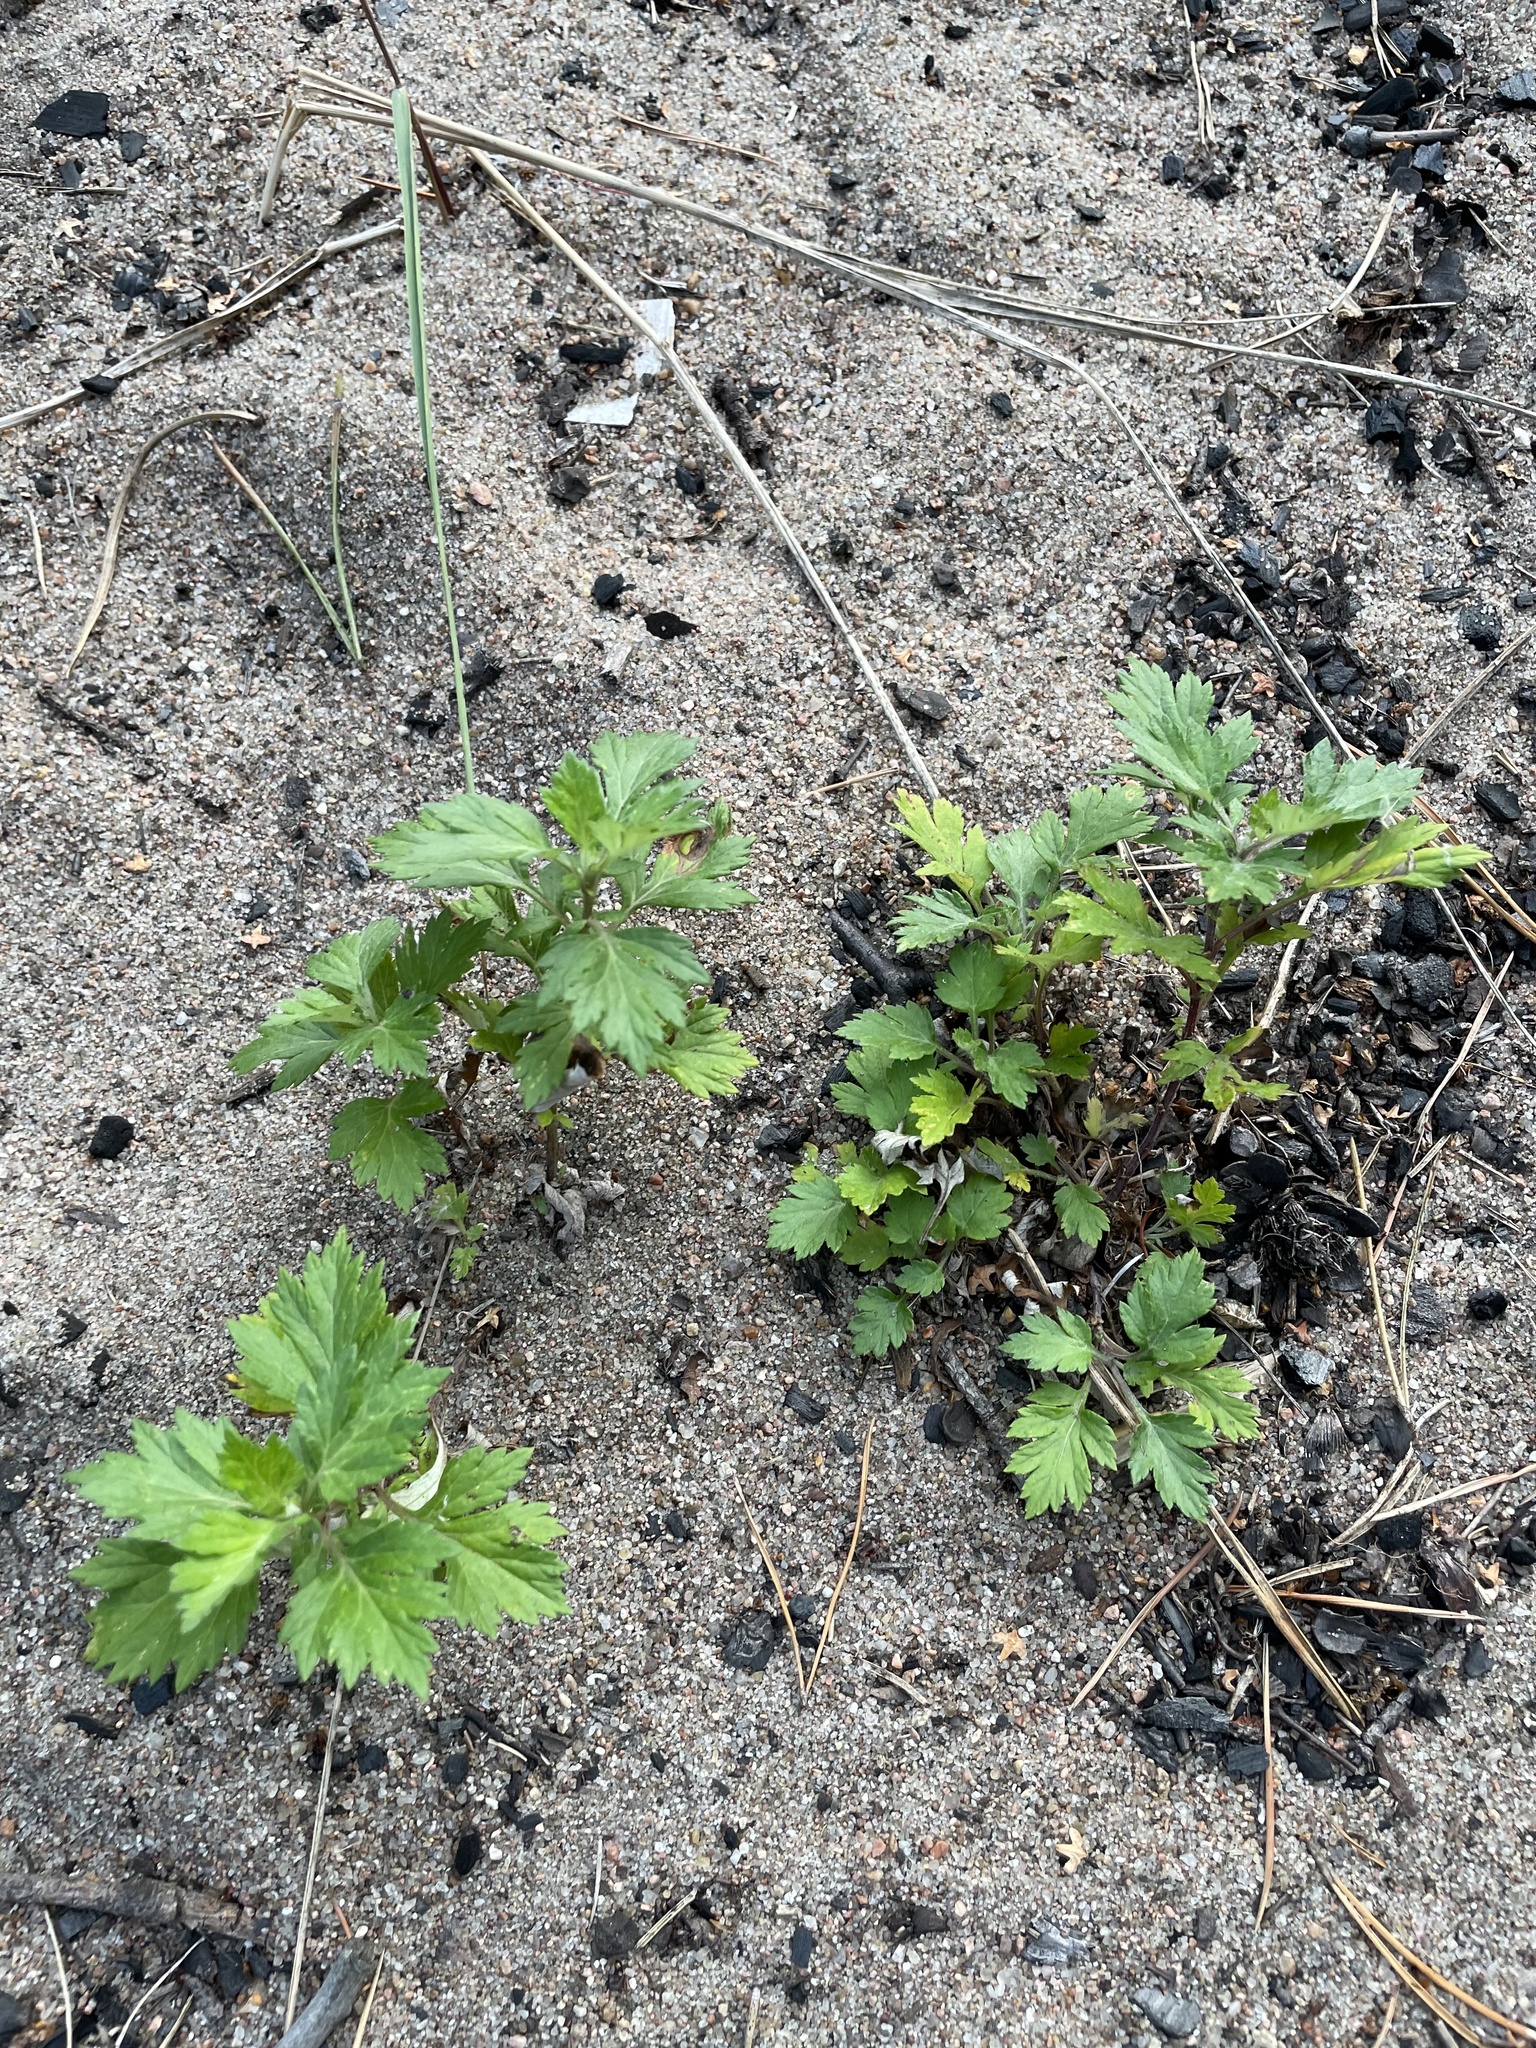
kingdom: Plantae
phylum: Tracheophyta
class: Magnoliopsida
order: Asterales
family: Asteraceae
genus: Artemisia
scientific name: Artemisia vulgaris
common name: Mugwort
